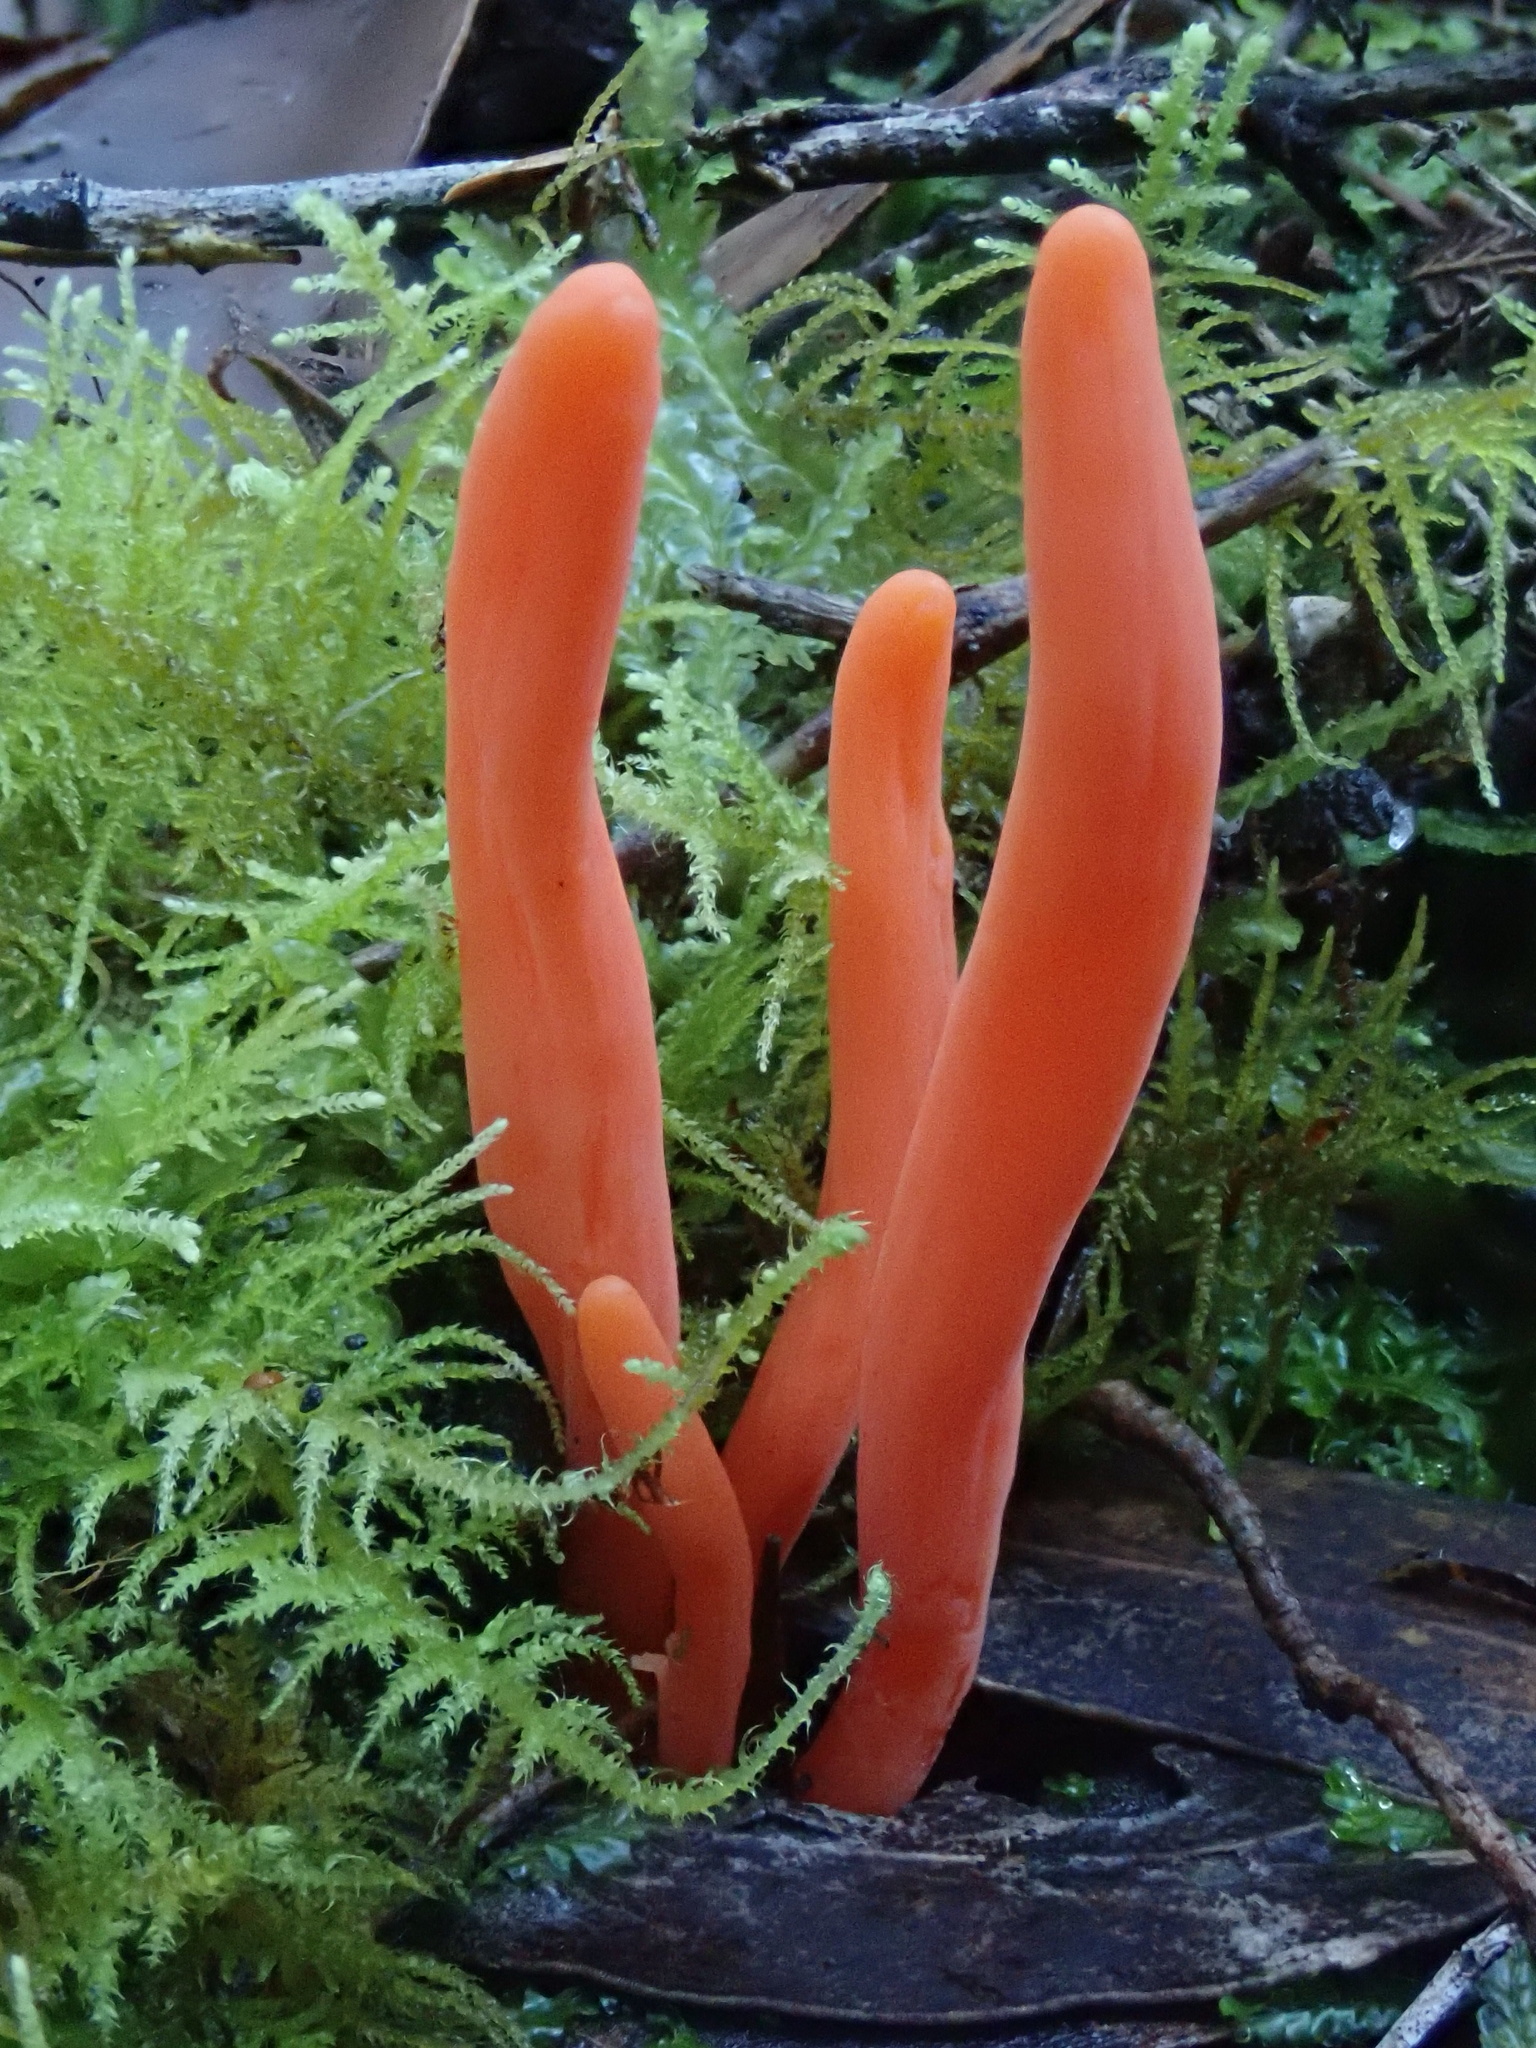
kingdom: Fungi
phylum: Basidiomycota
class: Agaricomycetes
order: Agaricales
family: Clavariaceae
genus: Clavulinopsis
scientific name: Clavulinopsis sulcata
